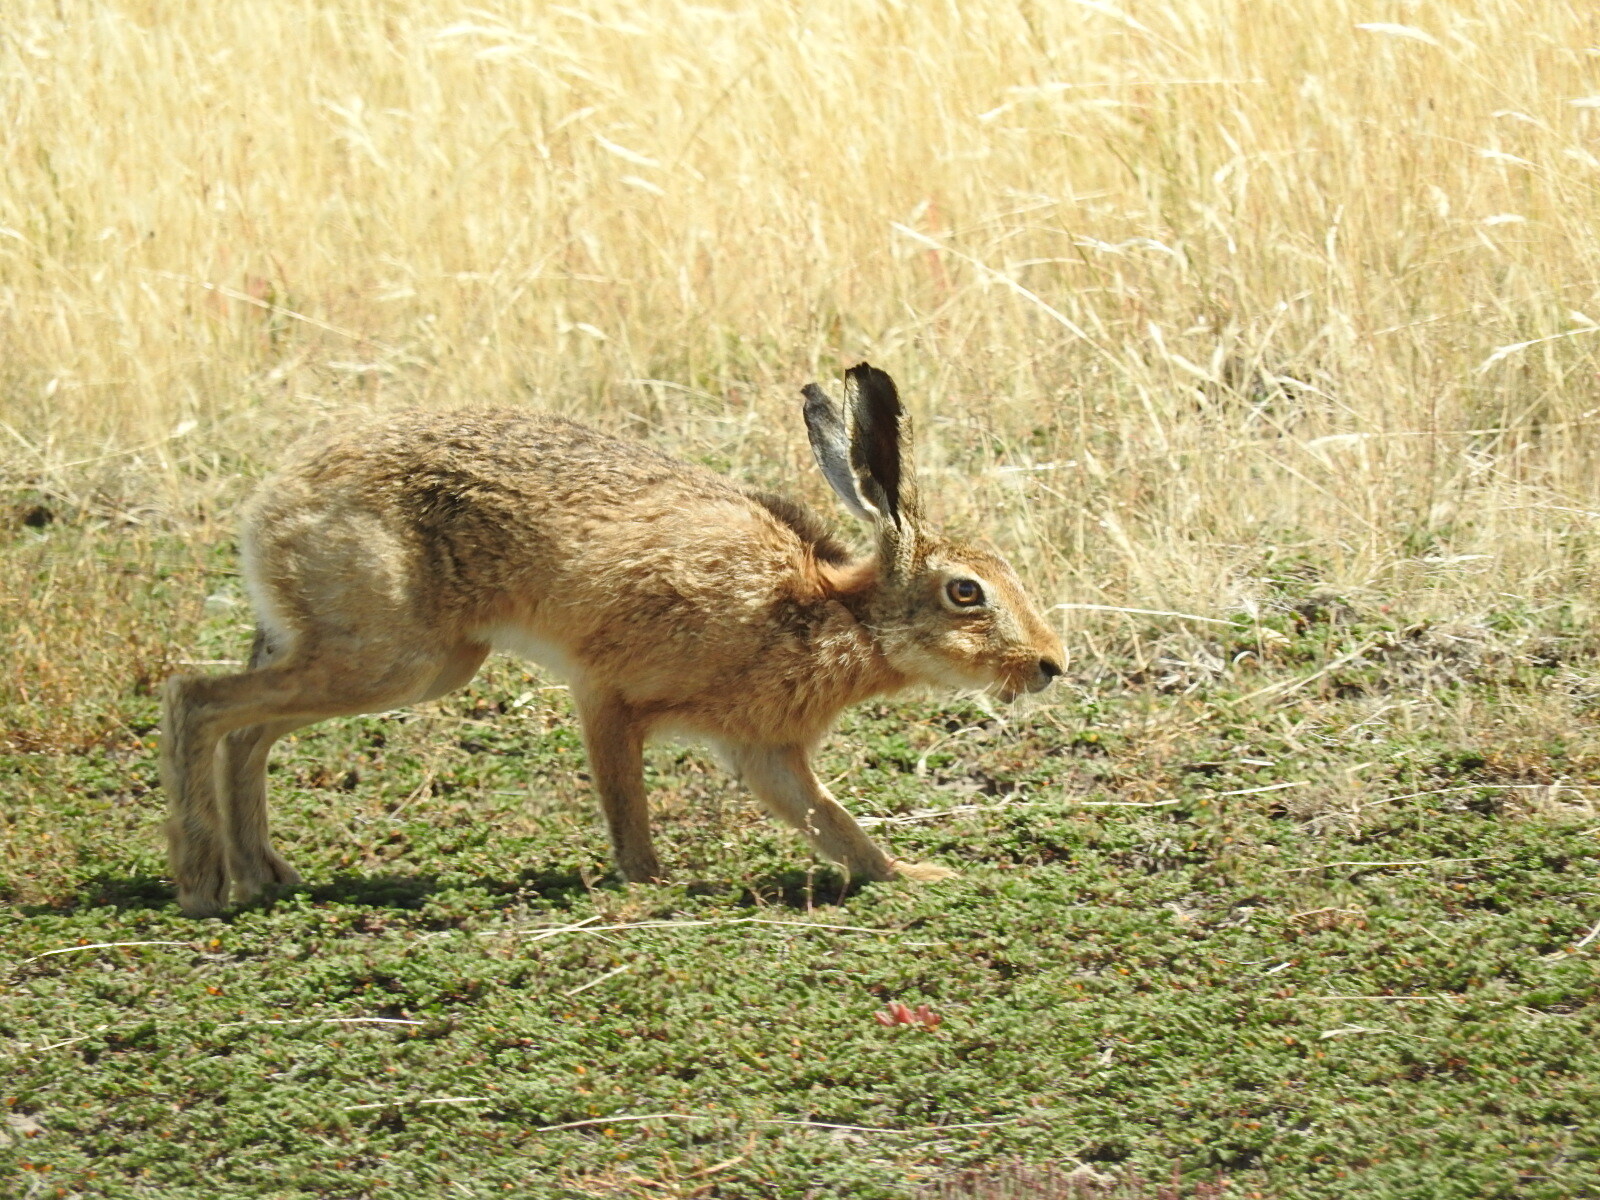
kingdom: Animalia
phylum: Chordata
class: Mammalia
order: Lagomorpha
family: Leporidae
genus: Lepus
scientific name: Lepus europaeus
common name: European hare
